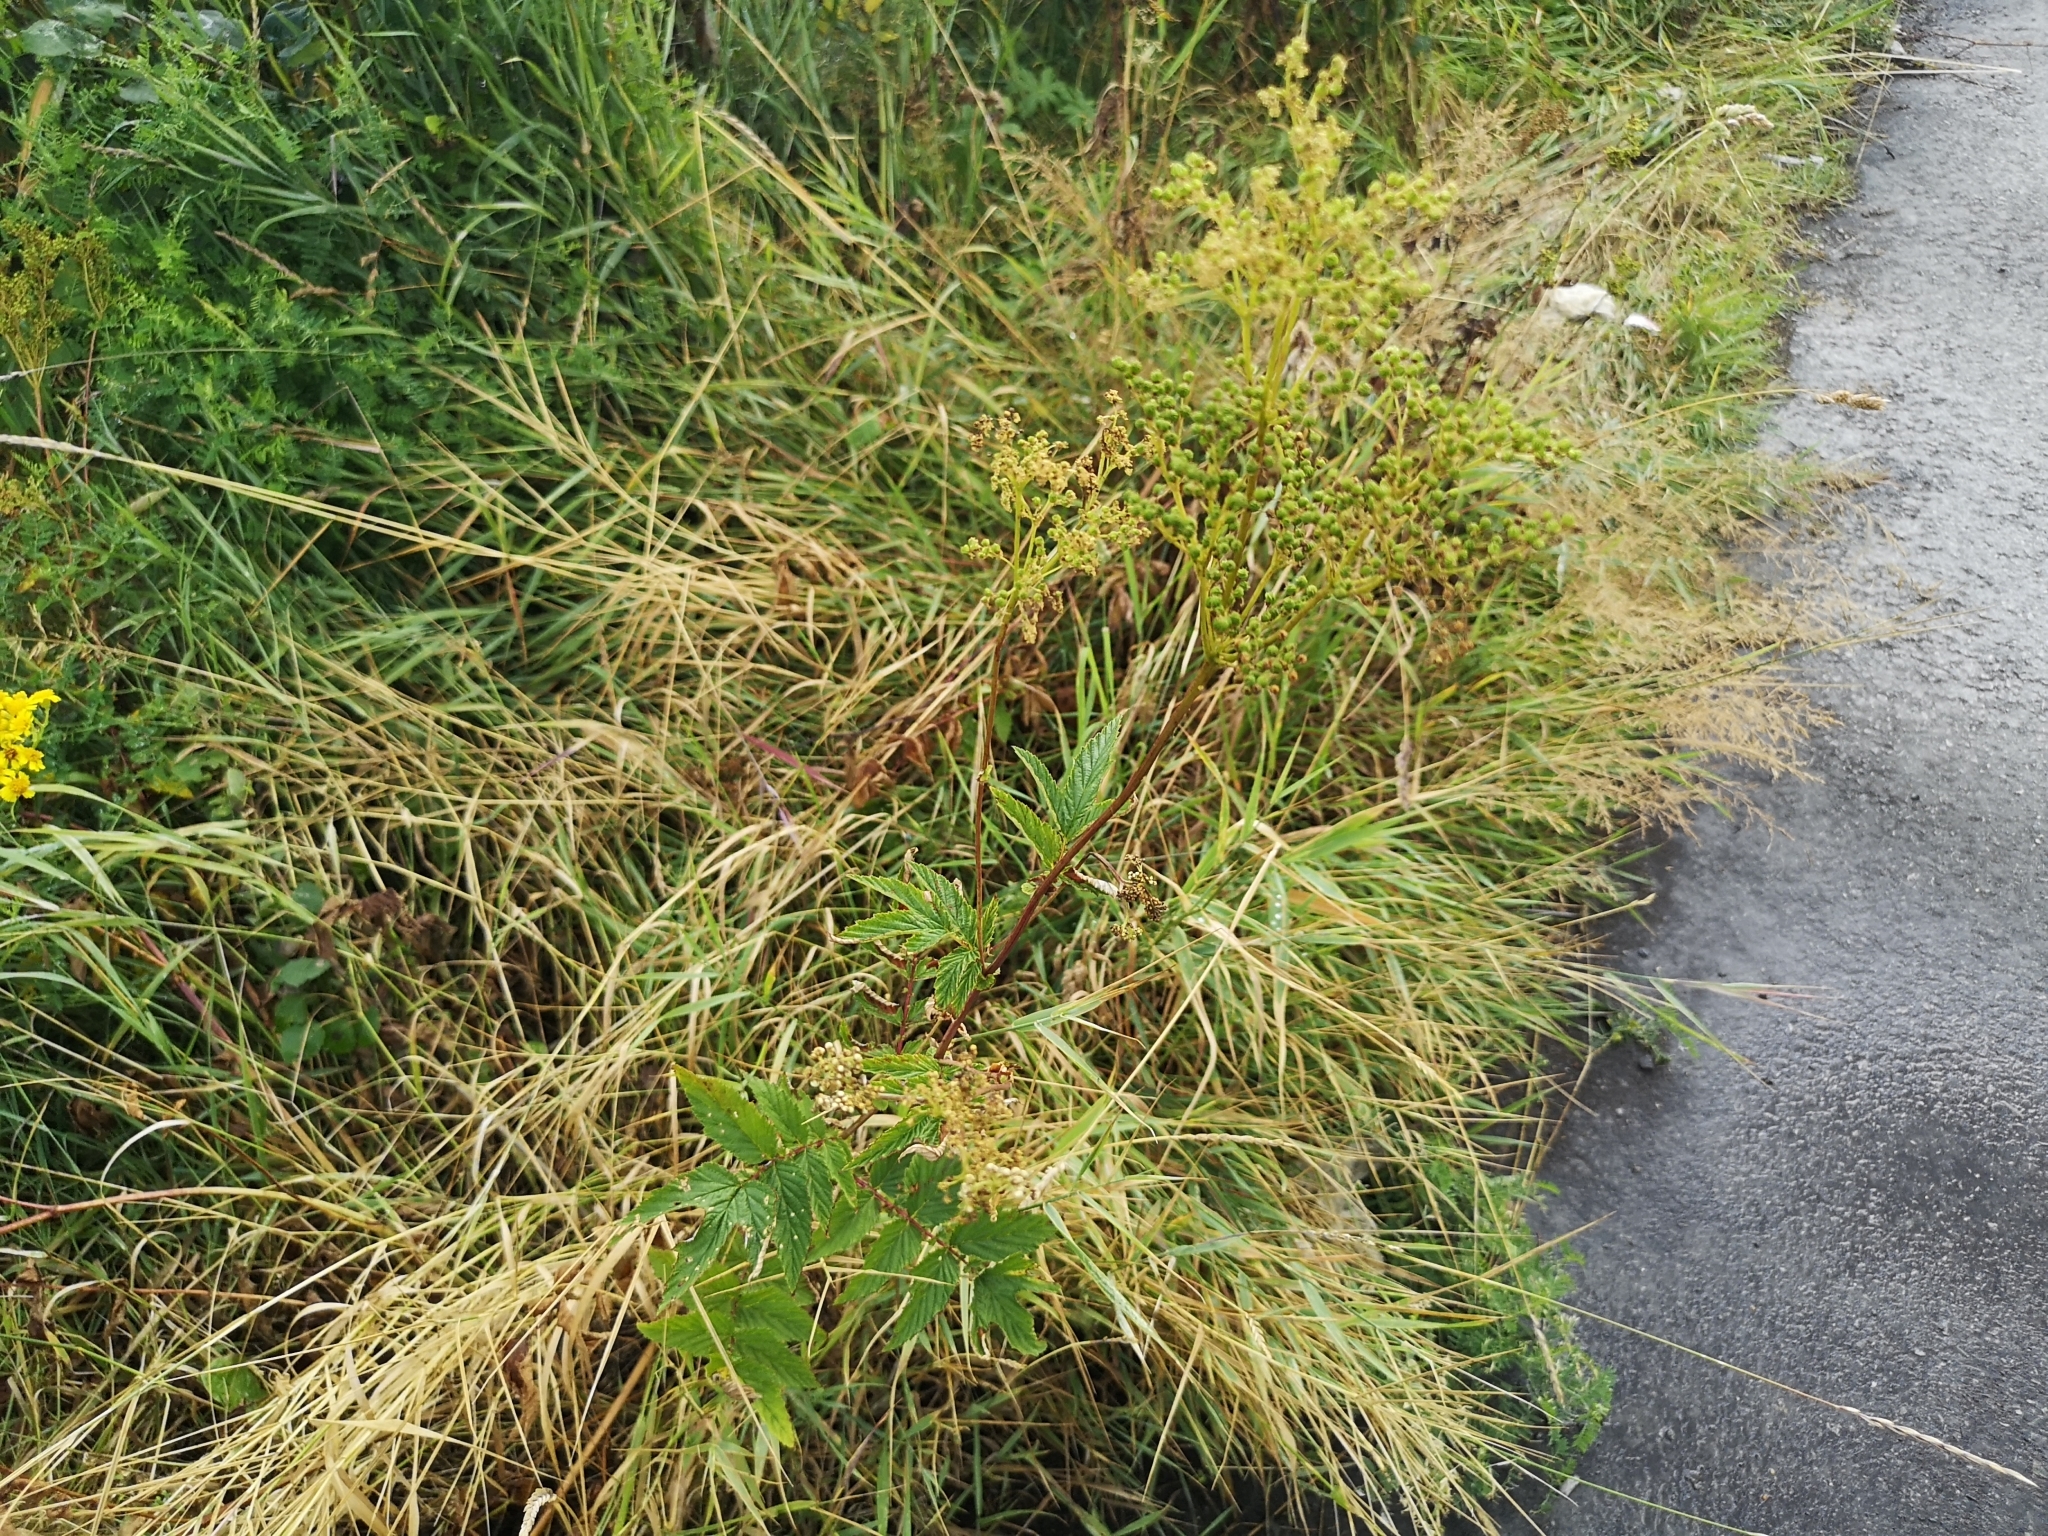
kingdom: Plantae
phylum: Tracheophyta
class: Magnoliopsida
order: Rosales
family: Rosaceae
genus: Filipendula
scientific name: Filipendula ulmaria
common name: Meadowsweet
